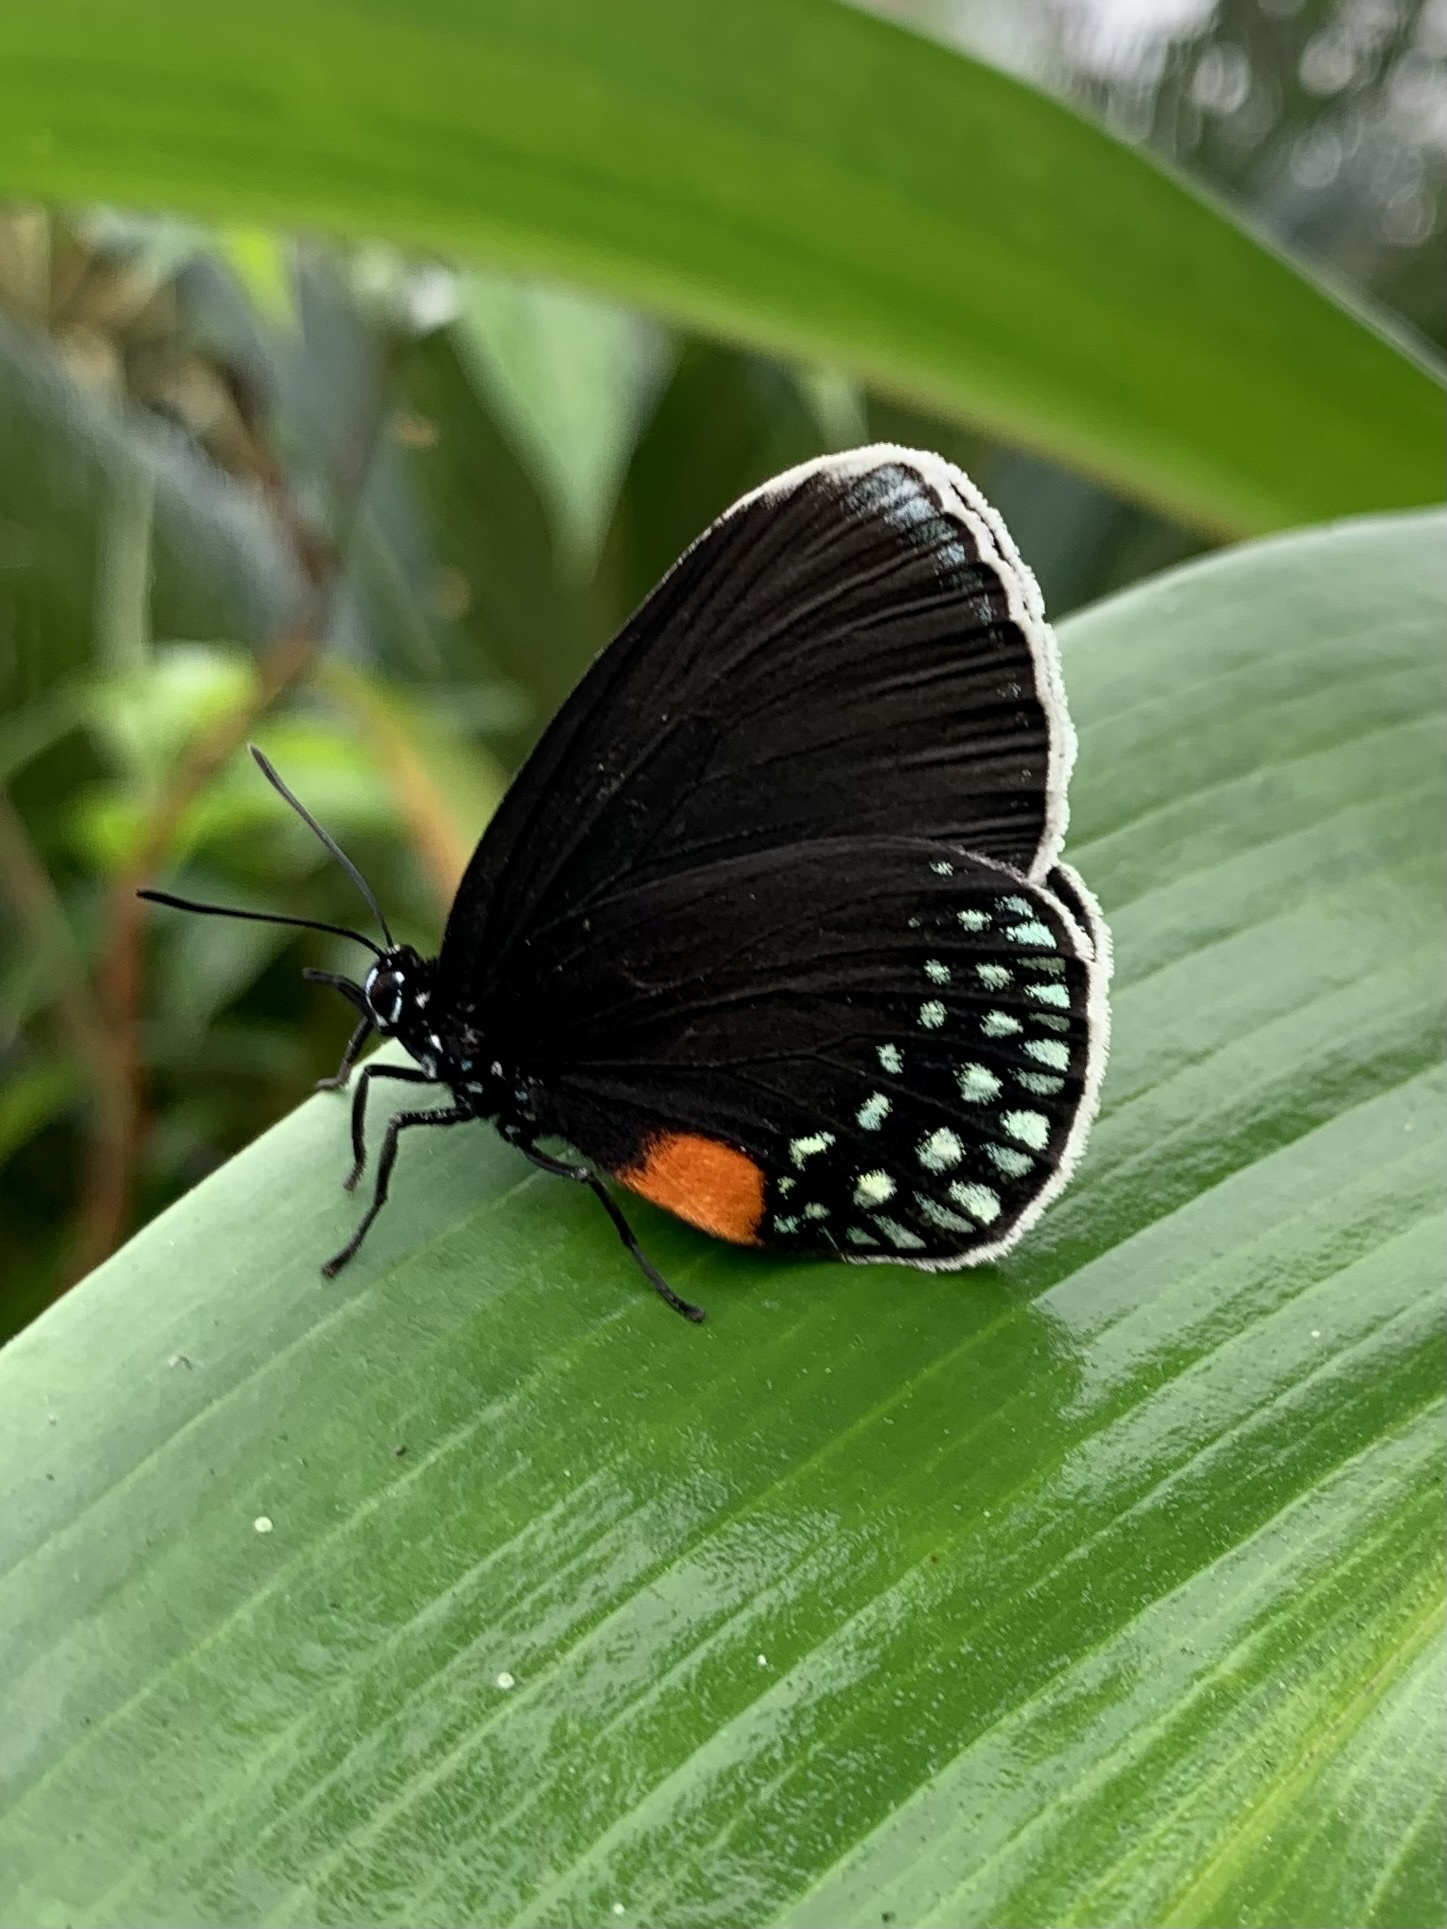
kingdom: Animalia
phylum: Arthropoda
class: Insecta
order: Lepidoptera
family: Lycaenidae
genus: Eumaeus
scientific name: Eumaeus godartii
